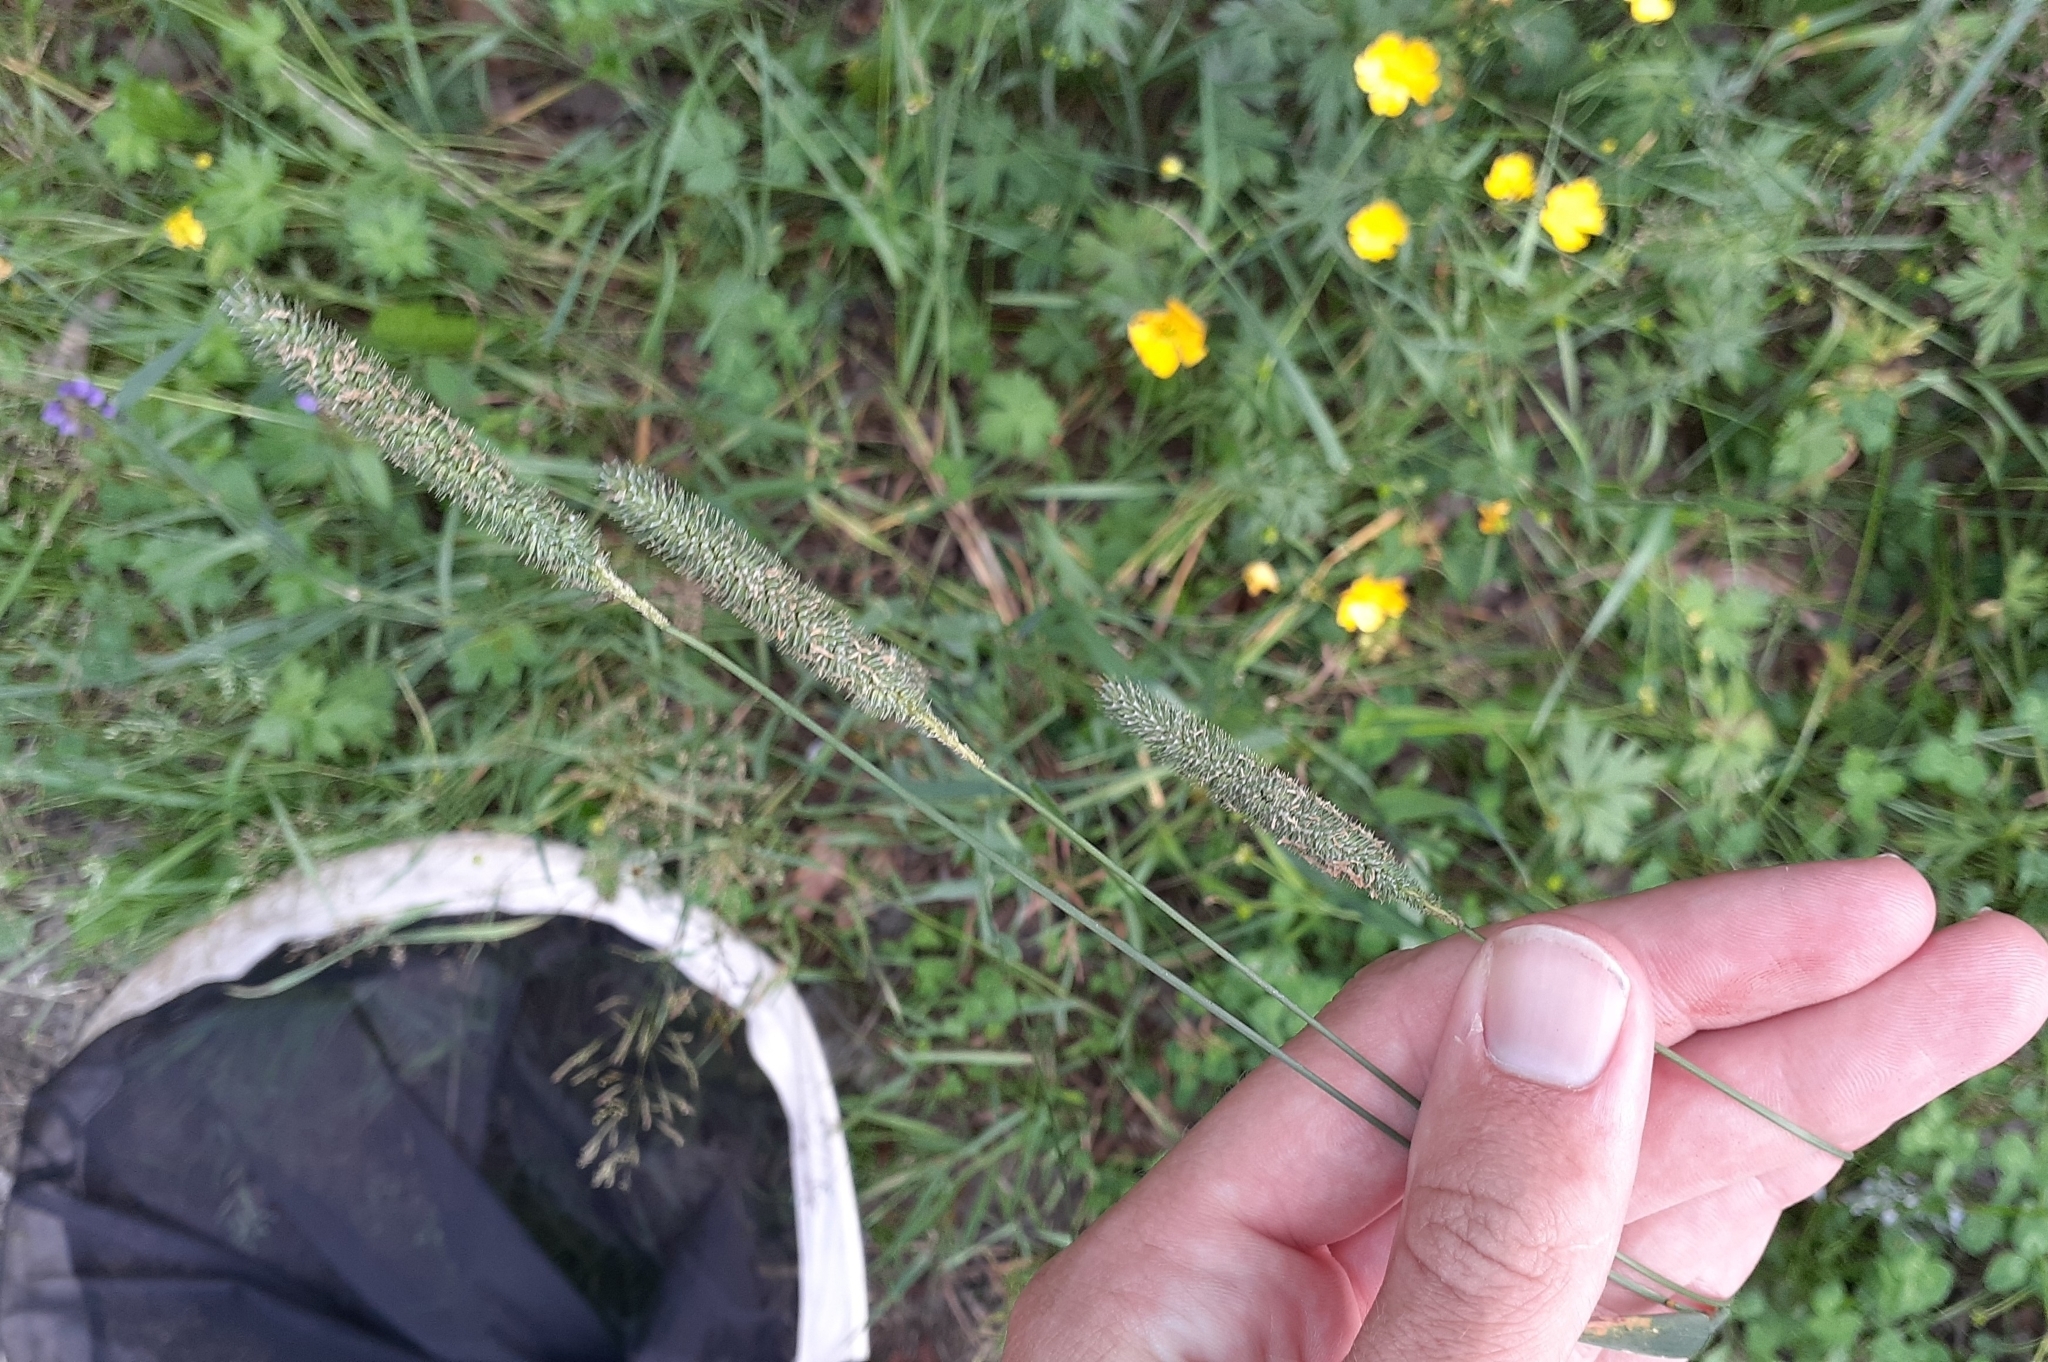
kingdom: Plantae
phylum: Tracheophyta
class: Liliopsida
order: Poales
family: Poaceae
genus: Phleum
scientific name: Phleum pratense
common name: Timothy grass
